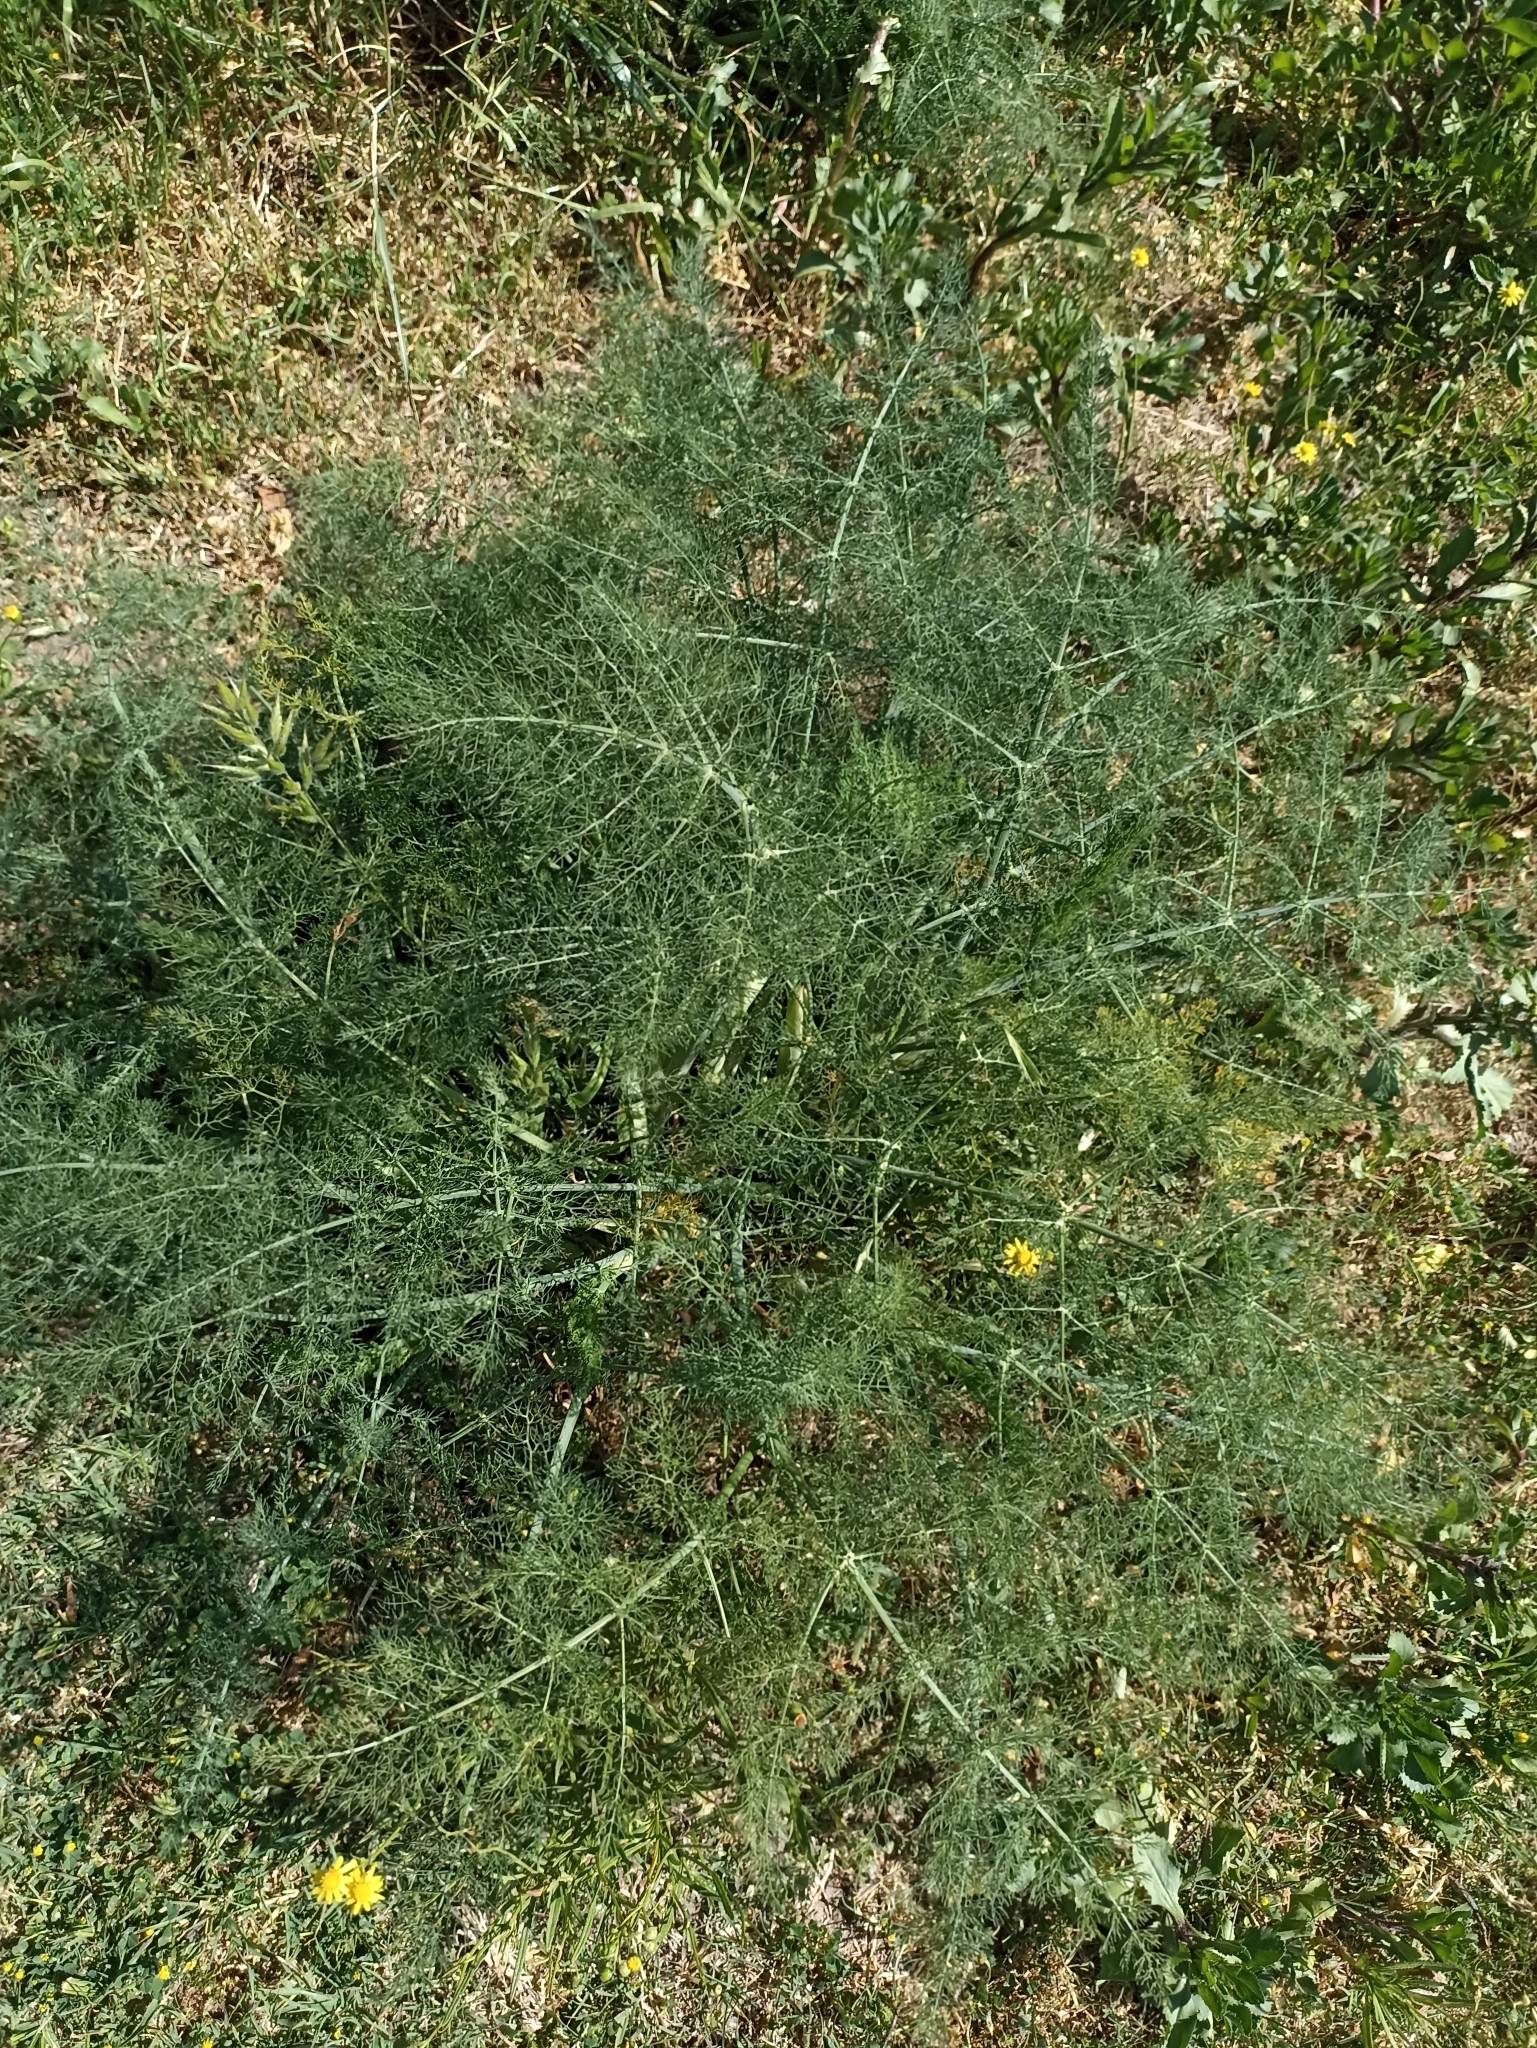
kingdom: Plantae
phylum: Tracheophyta
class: Magnoliopsida
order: Apiales
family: Apiaceae
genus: Foeniculum
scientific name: Foeniculum vulgare
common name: Fennel
